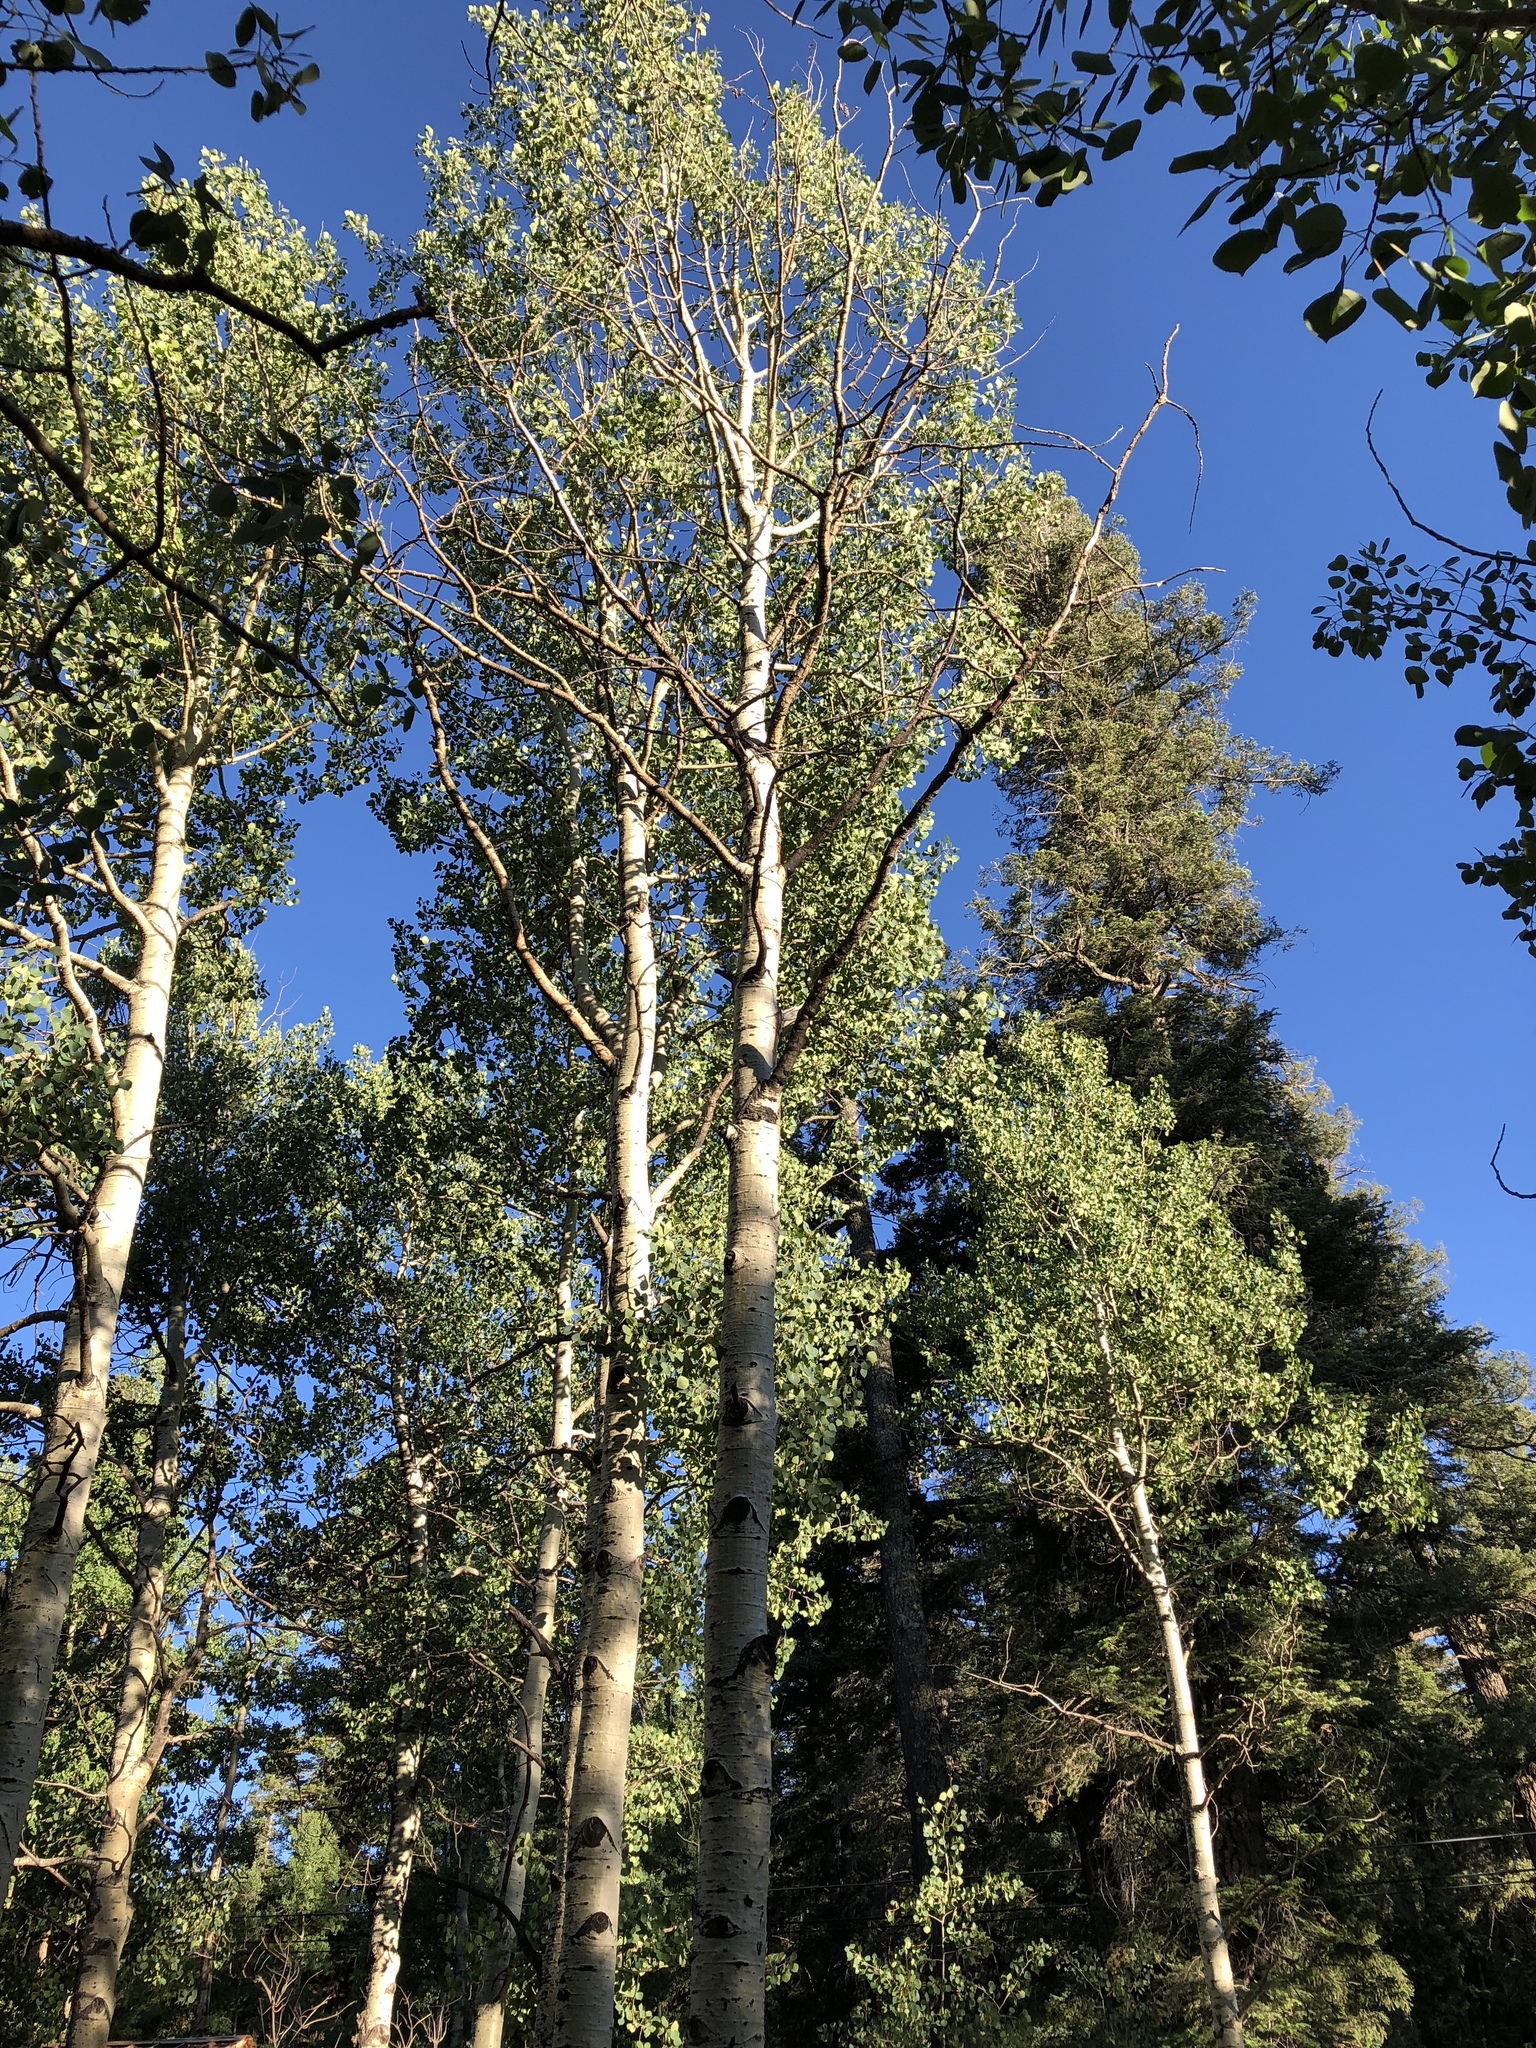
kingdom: Plantae
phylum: Tracheophyta
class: Magnoliopsida
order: Malpighiales
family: Salicaceae
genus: Populus
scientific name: Populus tremuloides
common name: Quaking aspen
